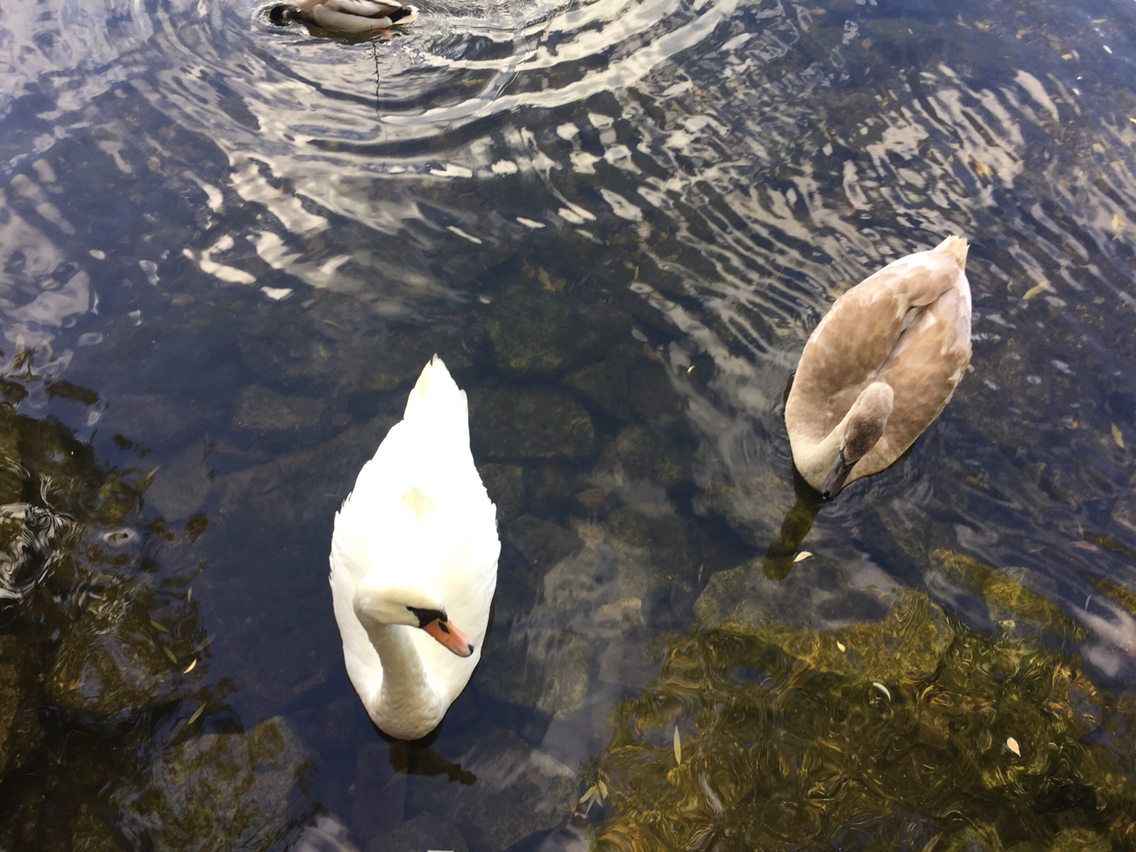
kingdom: Animalia
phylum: Chordata
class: Aves
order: Anseriformes
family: Anatidae
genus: Cygnus
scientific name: Cygnus olor
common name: Mute swan
